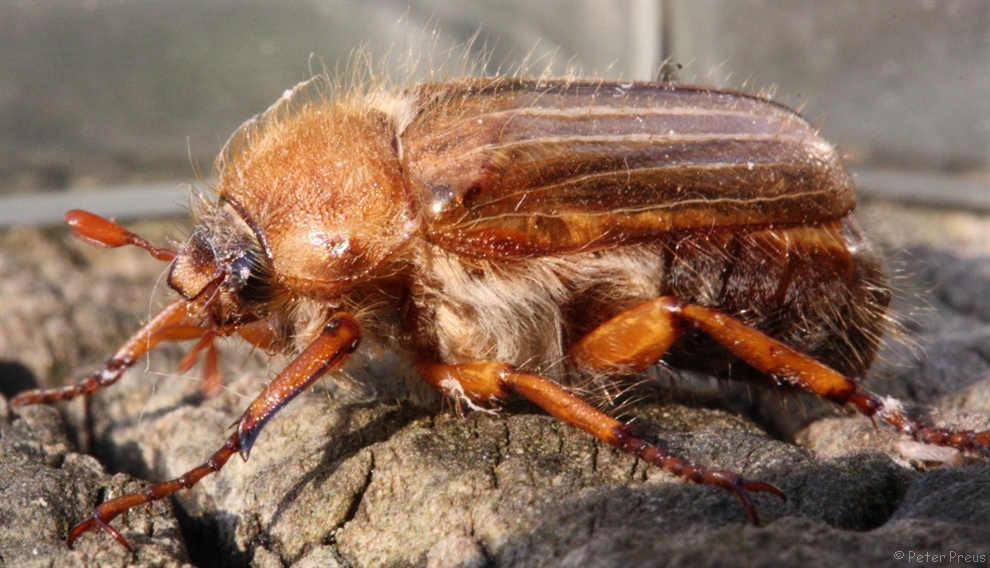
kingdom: Animalia
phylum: Arthropoda
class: Insecta
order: Coleoptera
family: Scarabaeidae
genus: Amphimallon
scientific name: Amphimallon solstitiale
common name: Summer chafer
